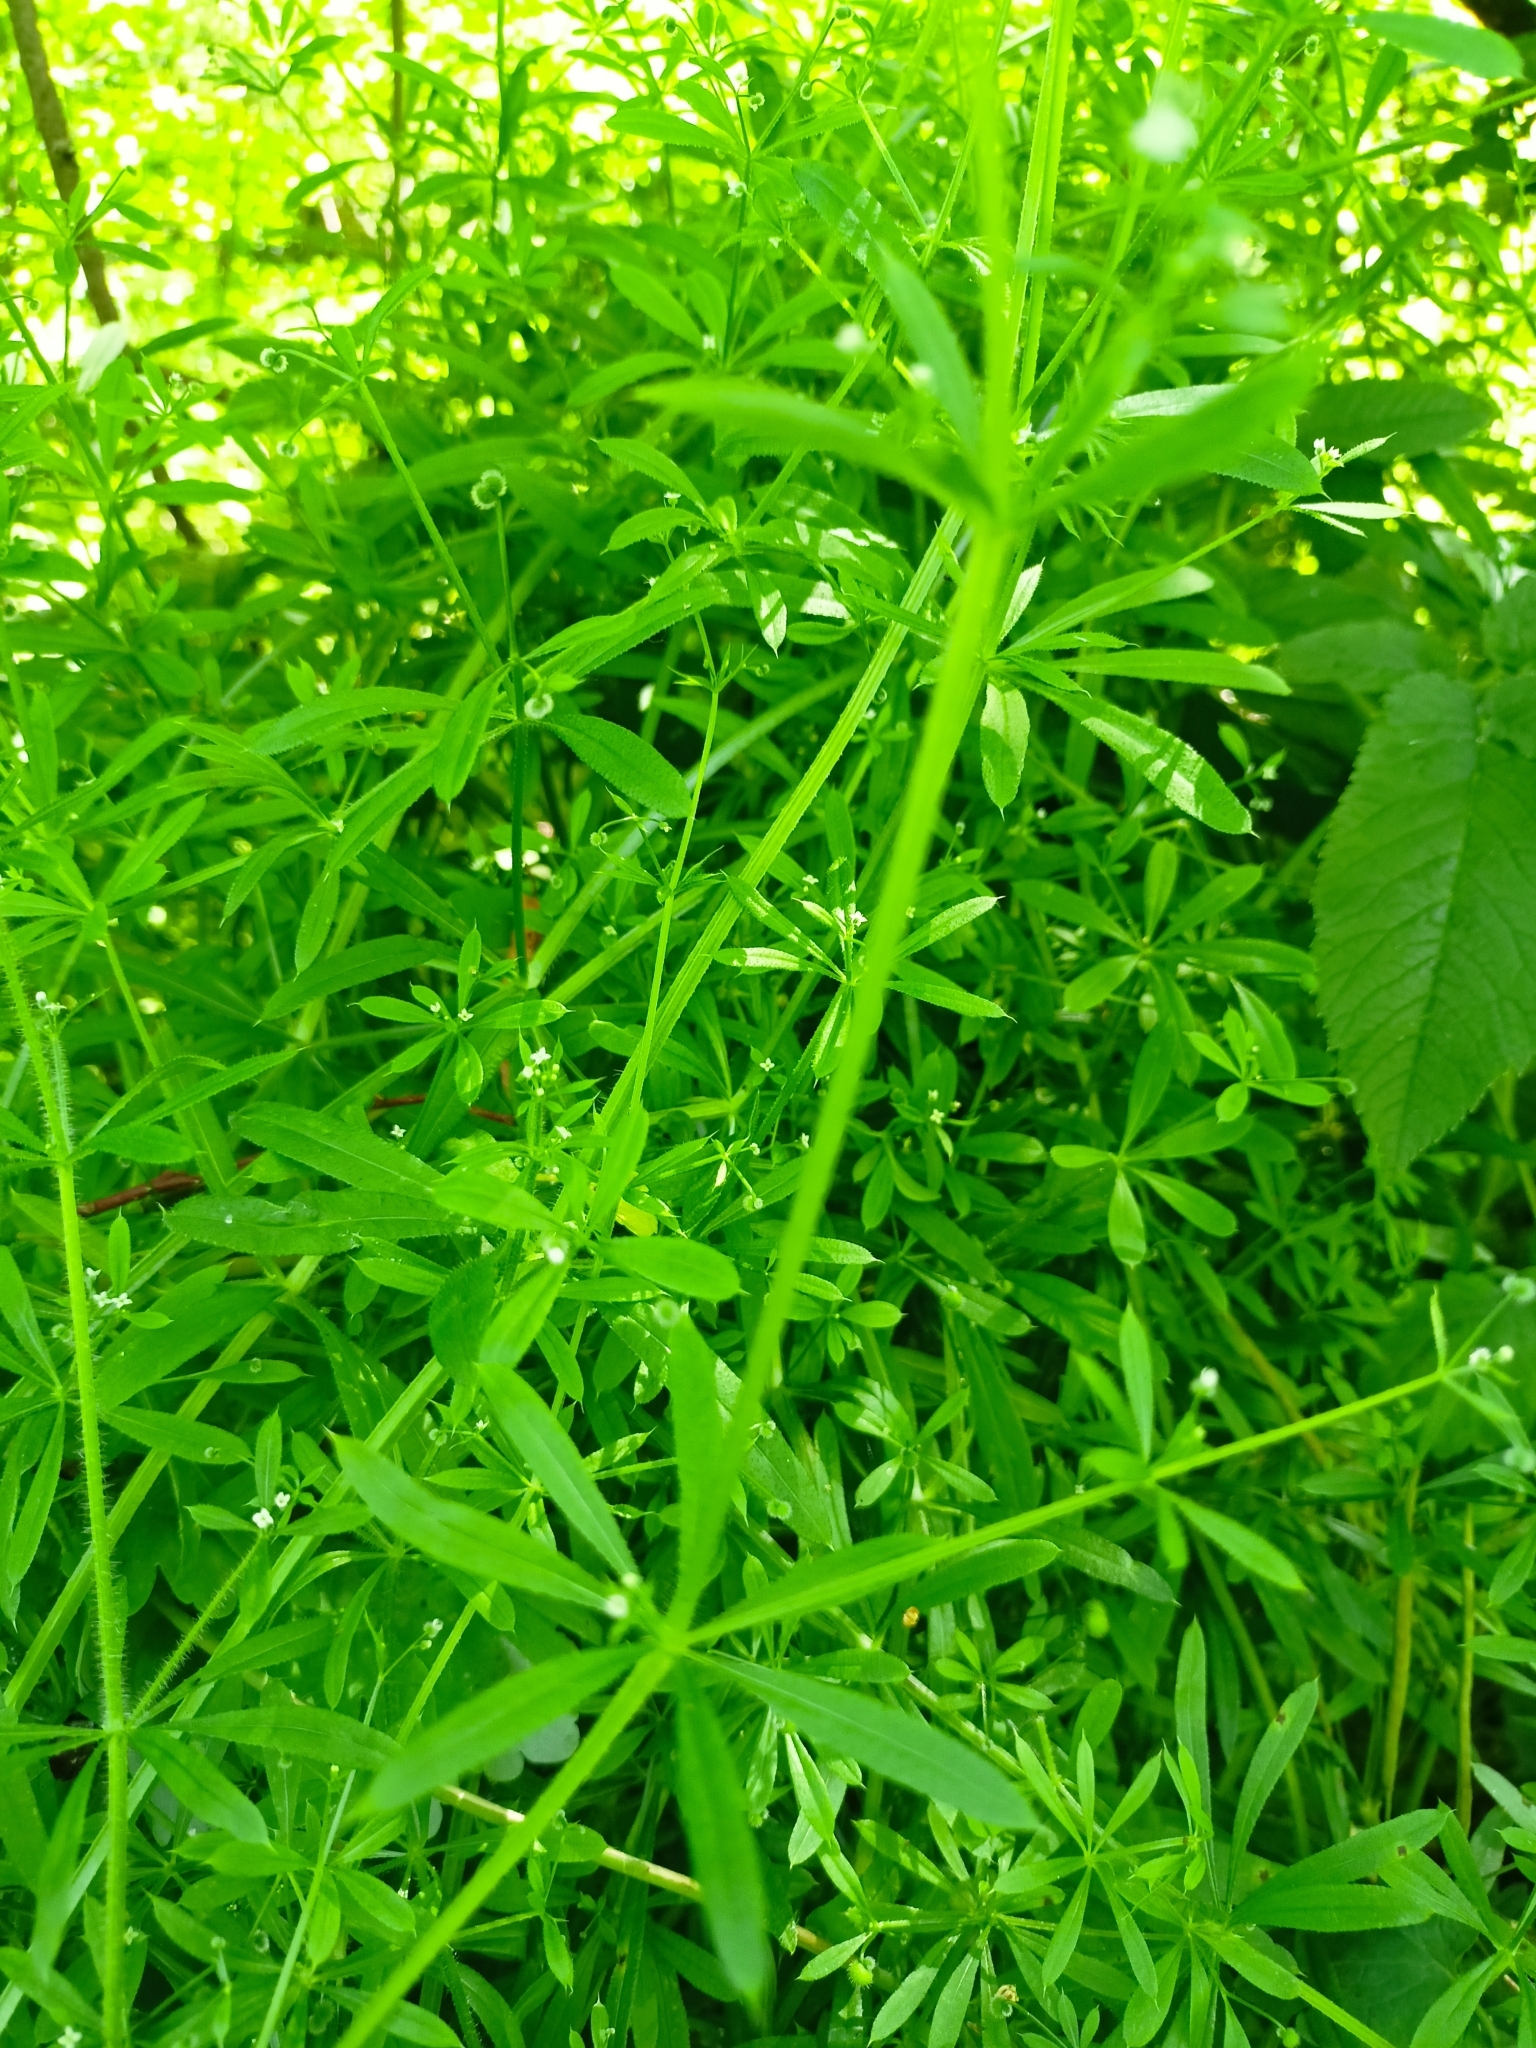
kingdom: Plantae
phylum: Tracheophyta
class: Magnoliopsida
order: Gentianales
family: Rubiaceae
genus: Galium
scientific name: Galium aparine
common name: Cleavers
